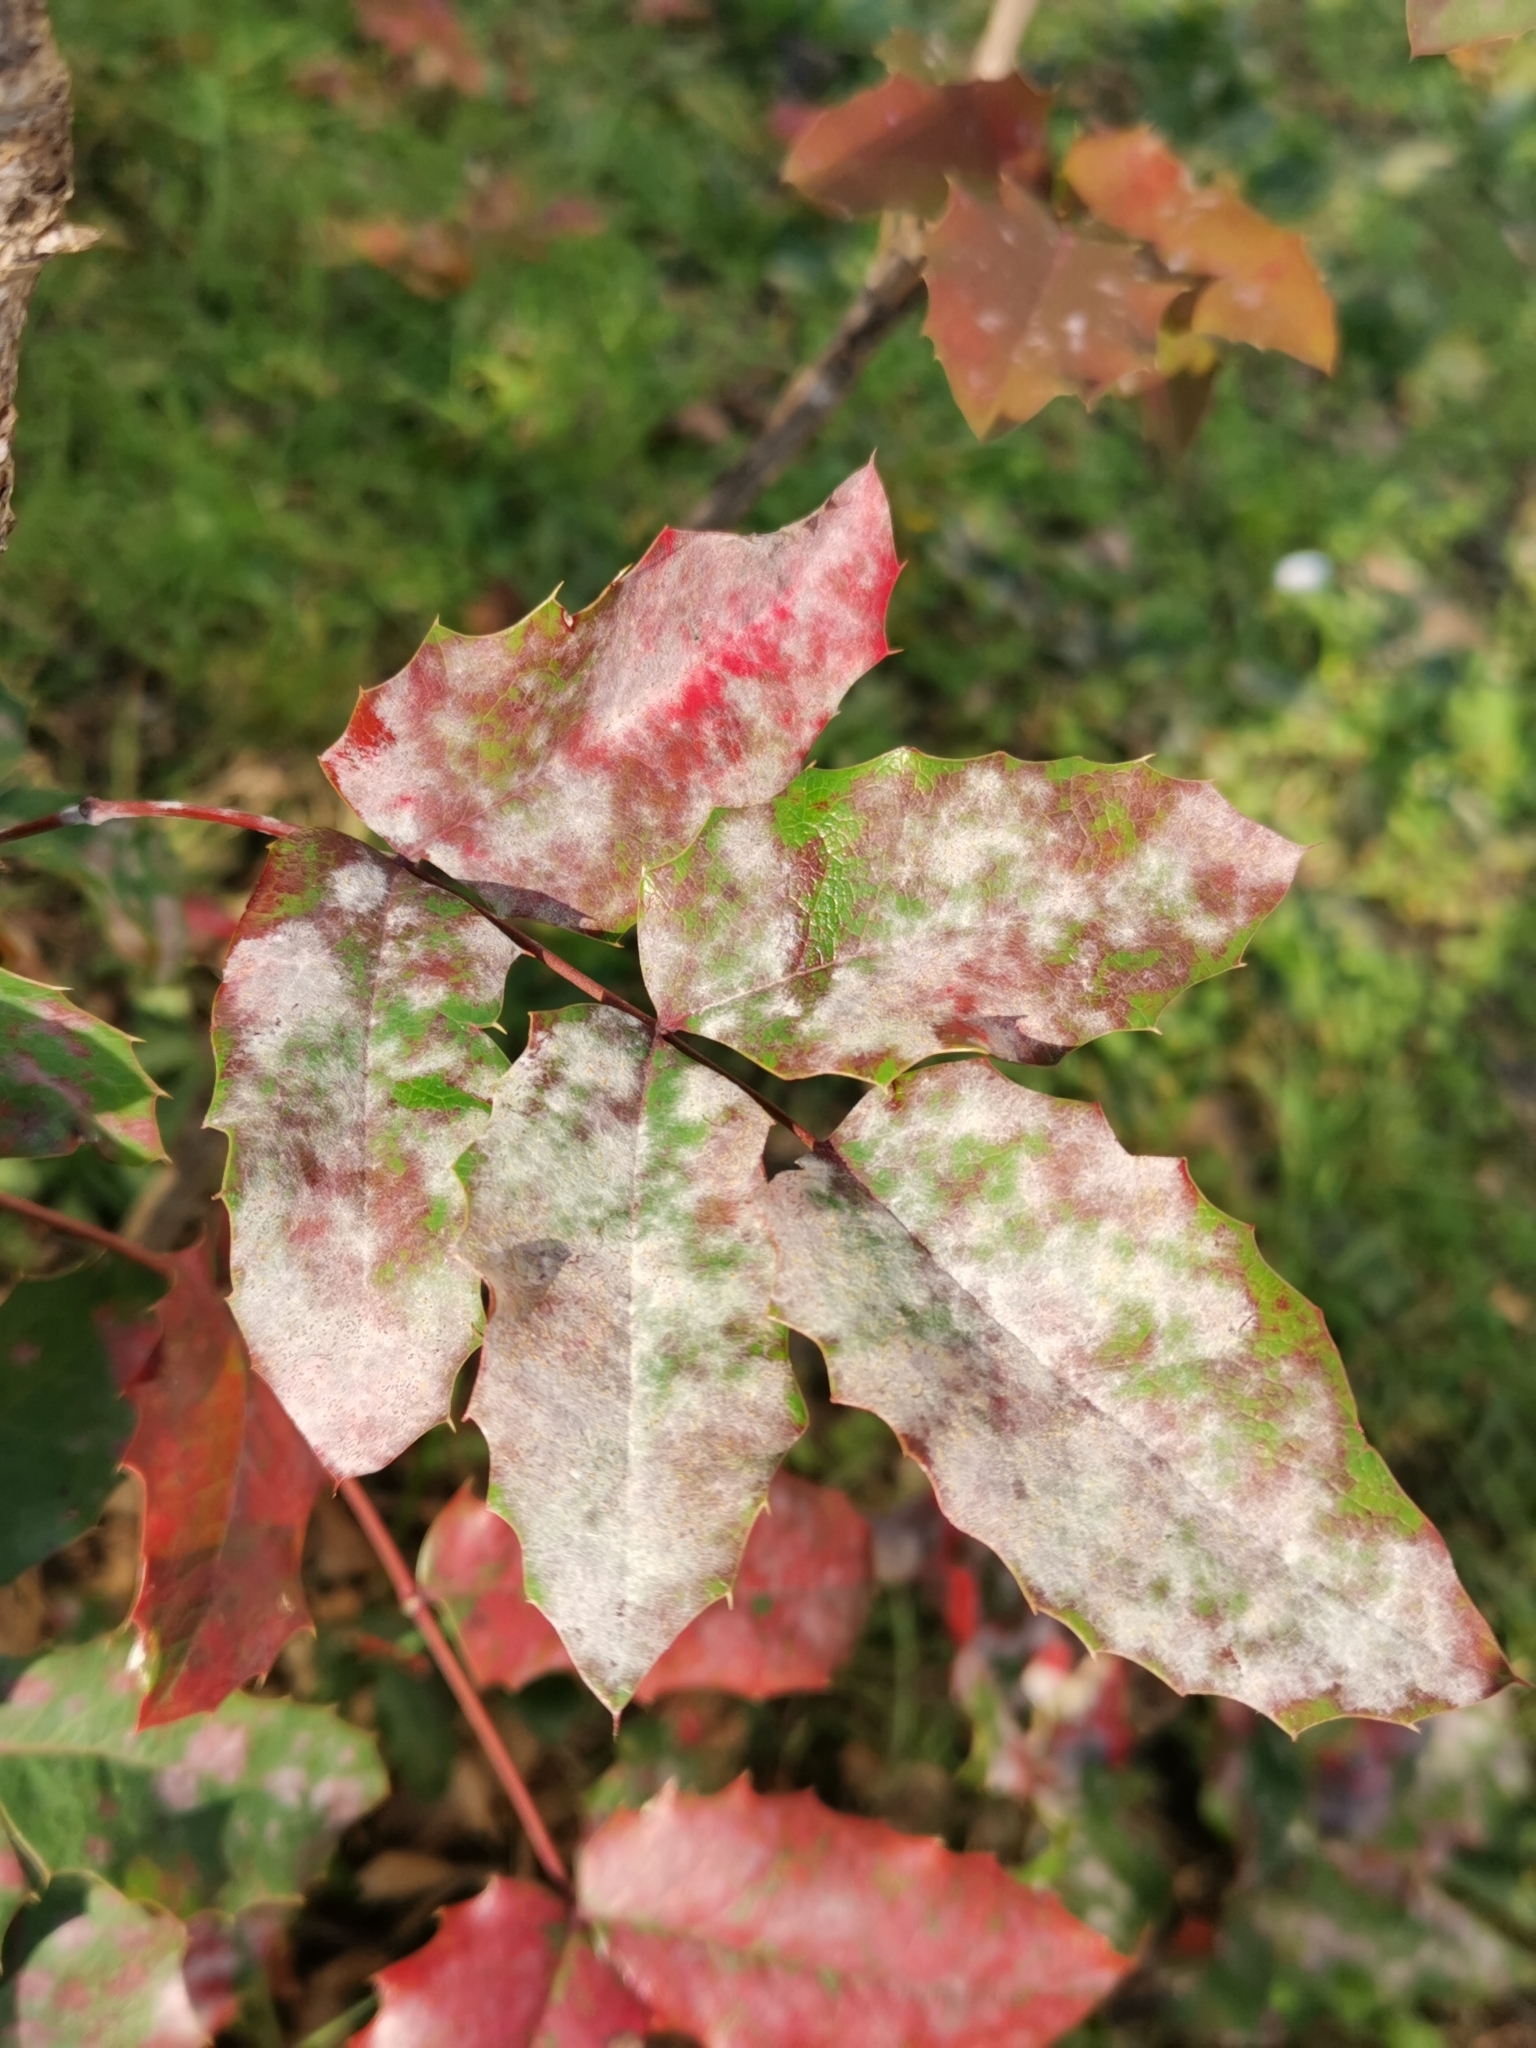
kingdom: Fungi
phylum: Ascomycota
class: Leotiomycetes
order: Helotiales
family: Erysiphaceae
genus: Erysiphe
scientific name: Erysiphe berberidis
